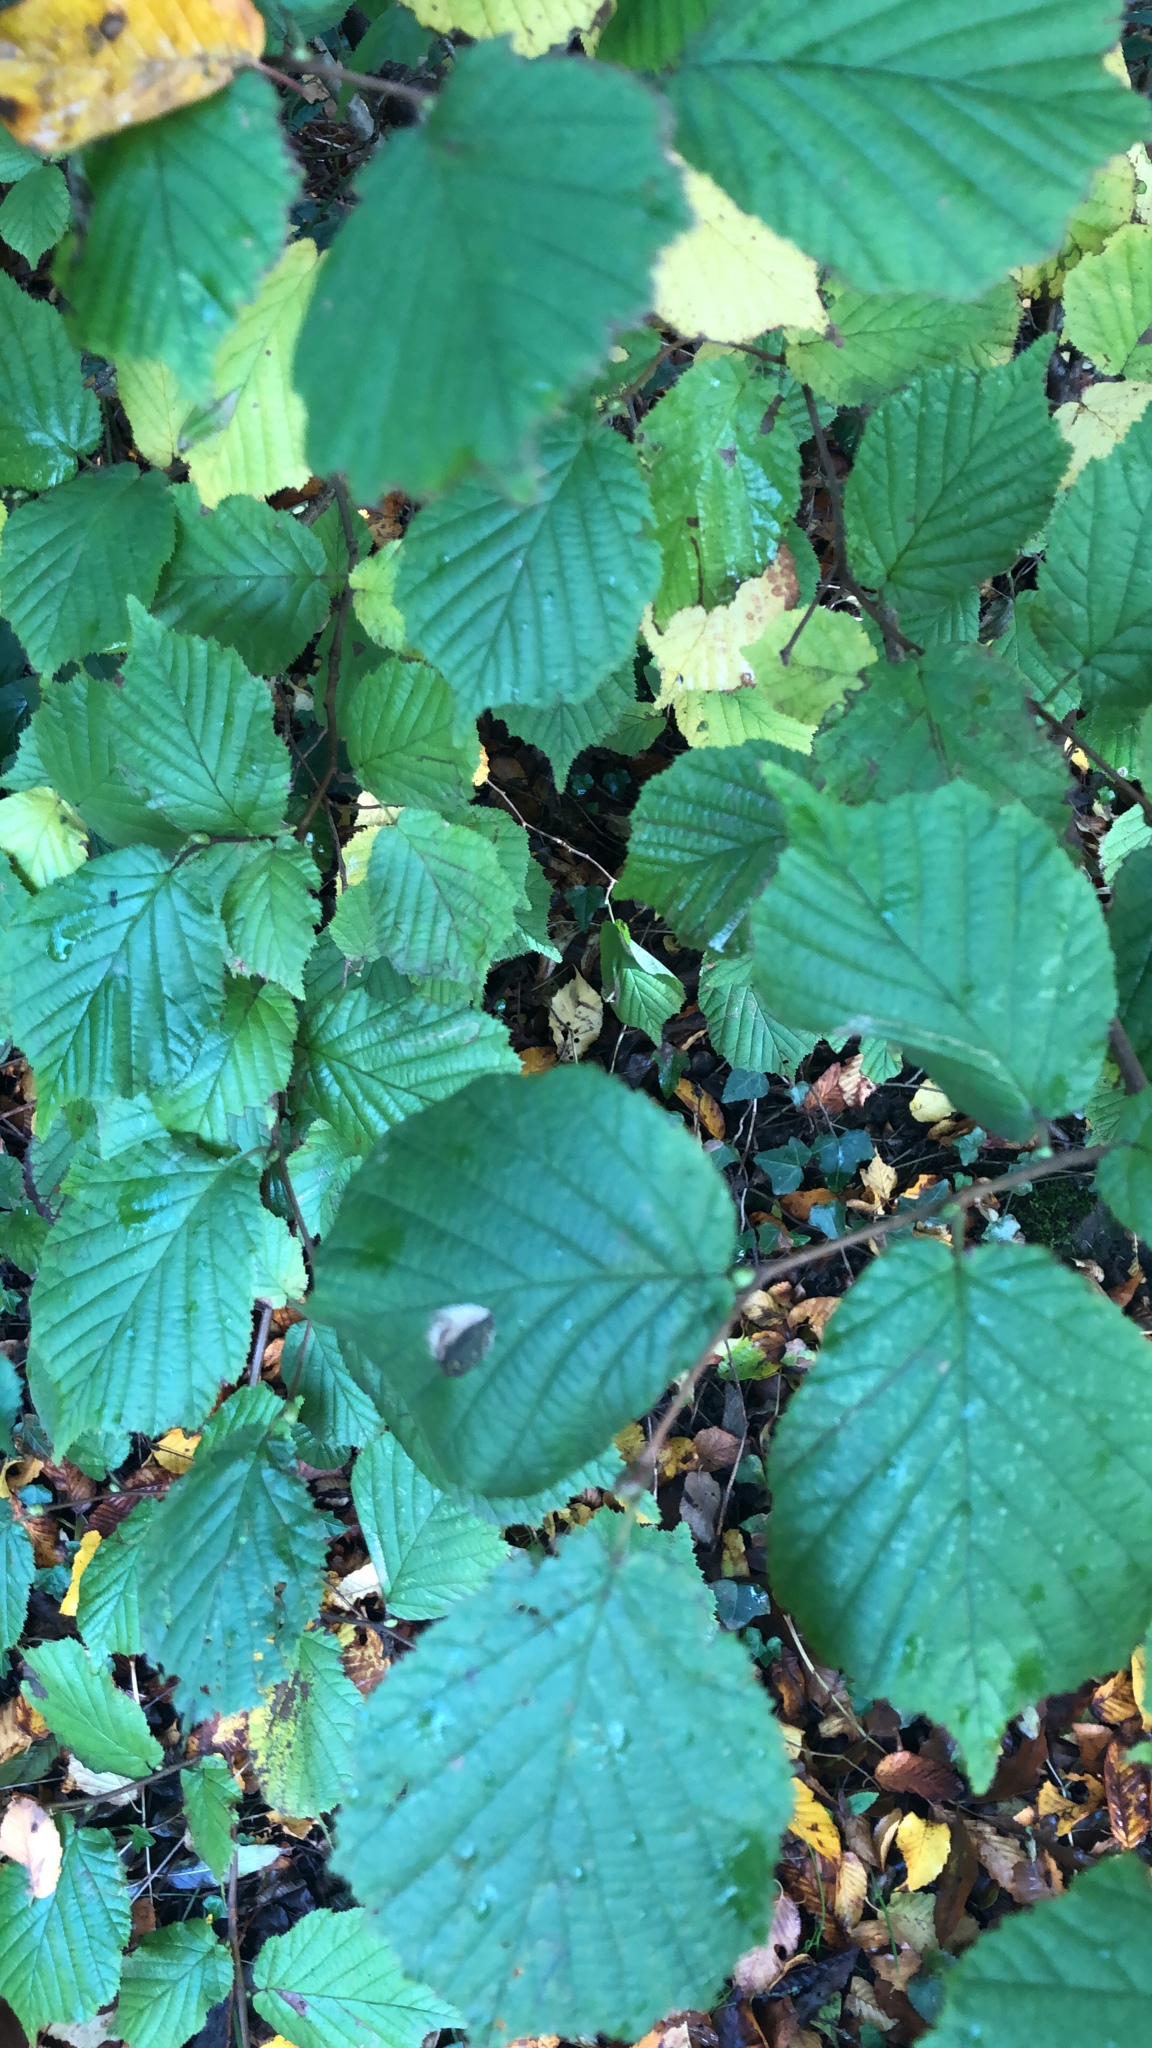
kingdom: Plantae
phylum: Tracheophyta
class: Magnoliopsida
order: Fagales
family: Betulaceae
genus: Corylus
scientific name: Corylus avellana
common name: European hazel
